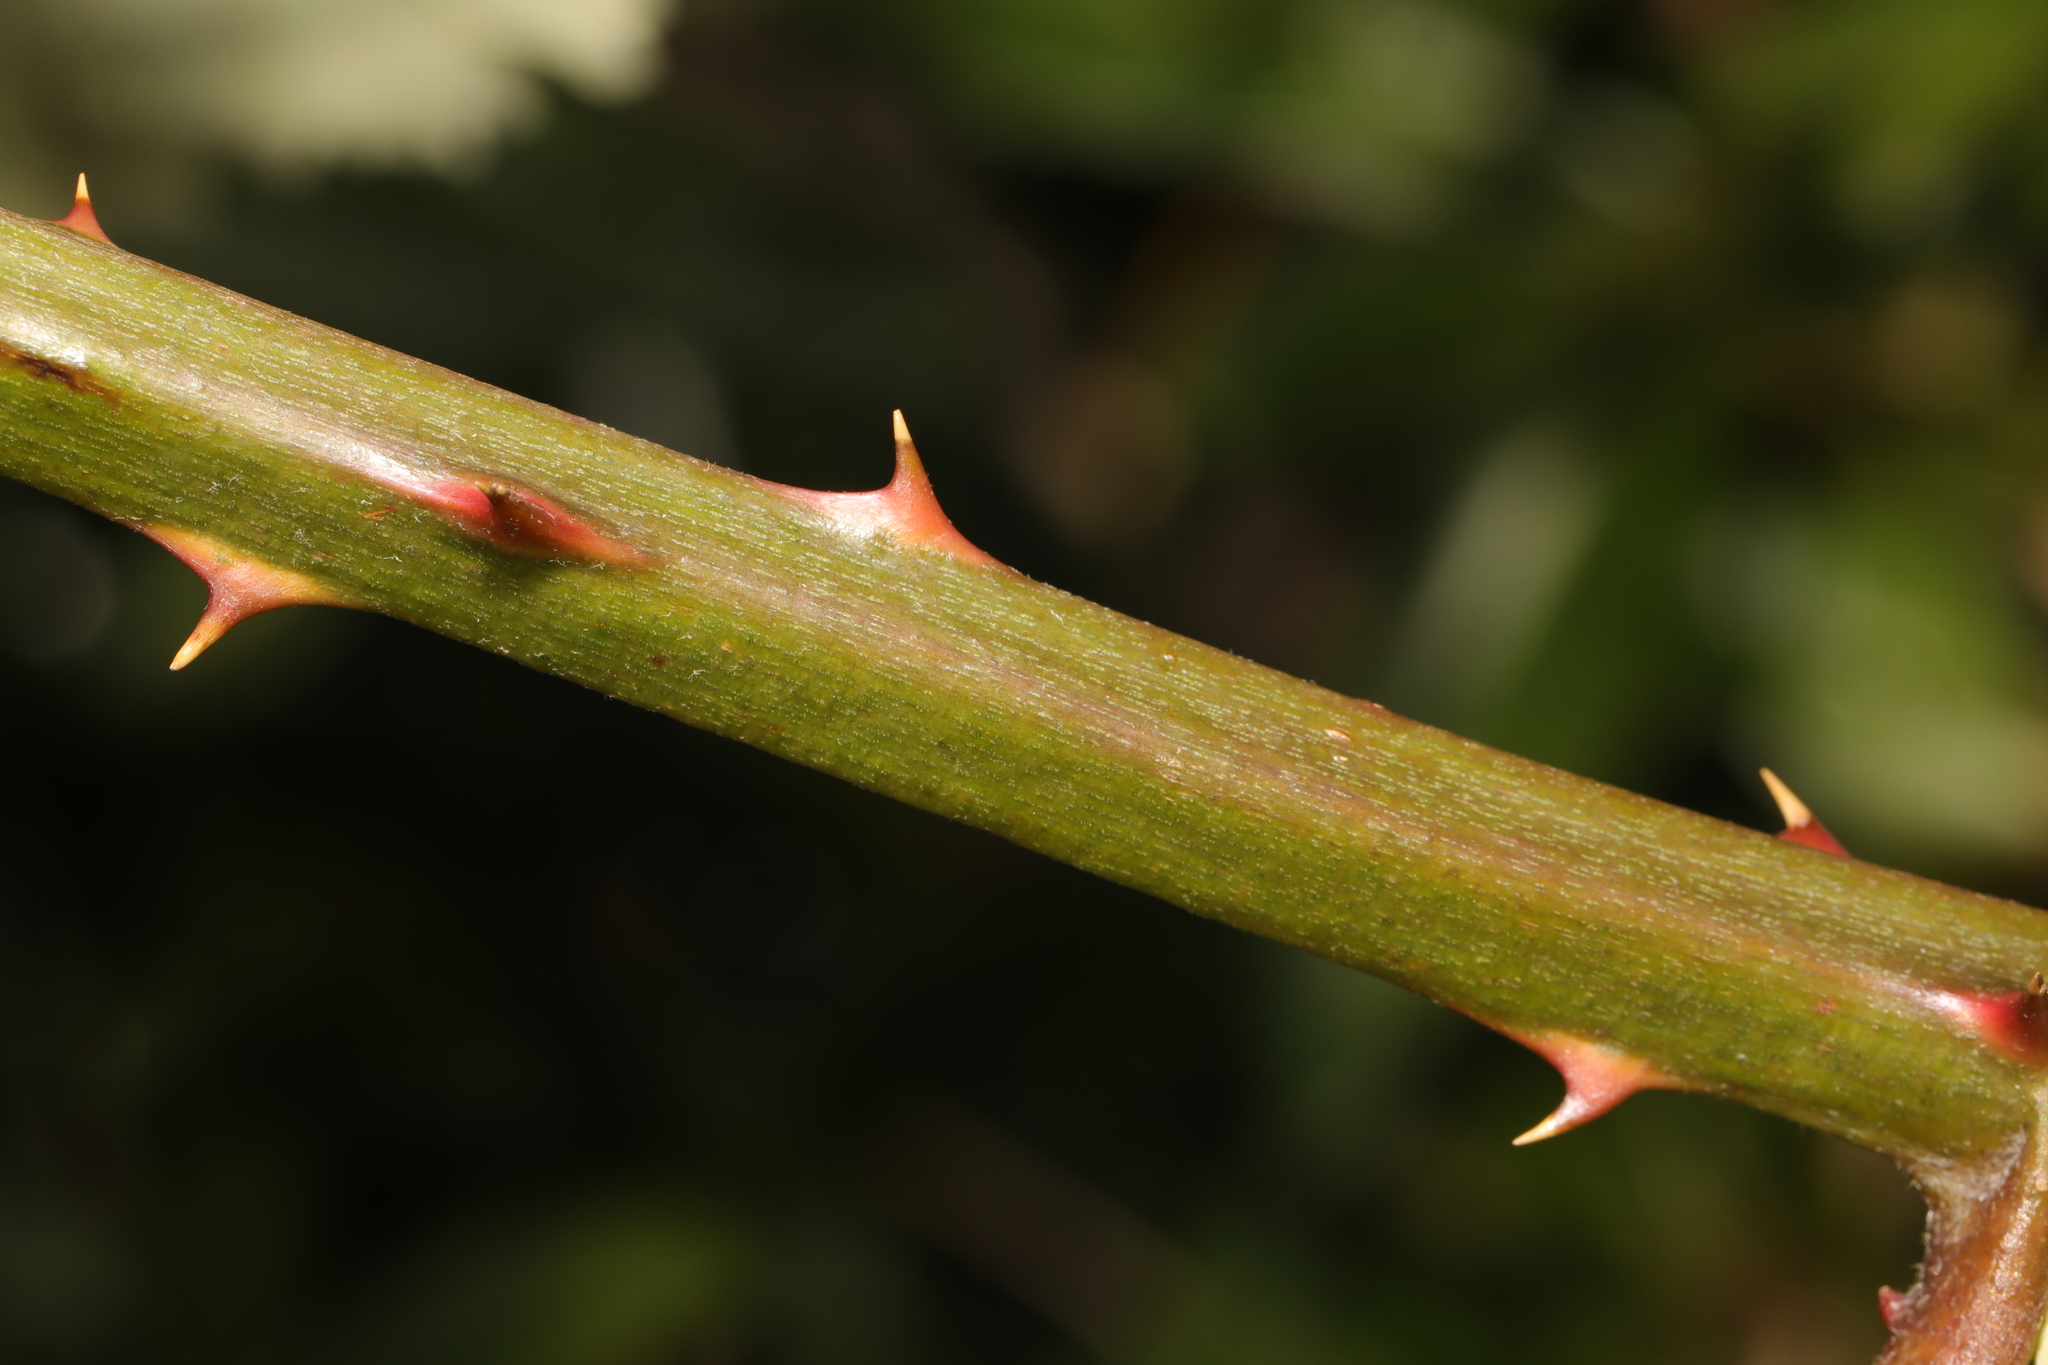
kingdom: Plantae
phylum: Tracheophyta
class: Magnoliopsida
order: Rosales
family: Rosaceae
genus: Rubus
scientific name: Rubus armeniacus
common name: Himalayan blackberry
